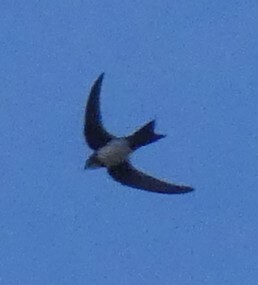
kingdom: Animalia
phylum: Chordata
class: Aves
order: Apodiformes
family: Apodidae
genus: Tachymarptis
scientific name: Tachymarptis melba
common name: Alpine swift
